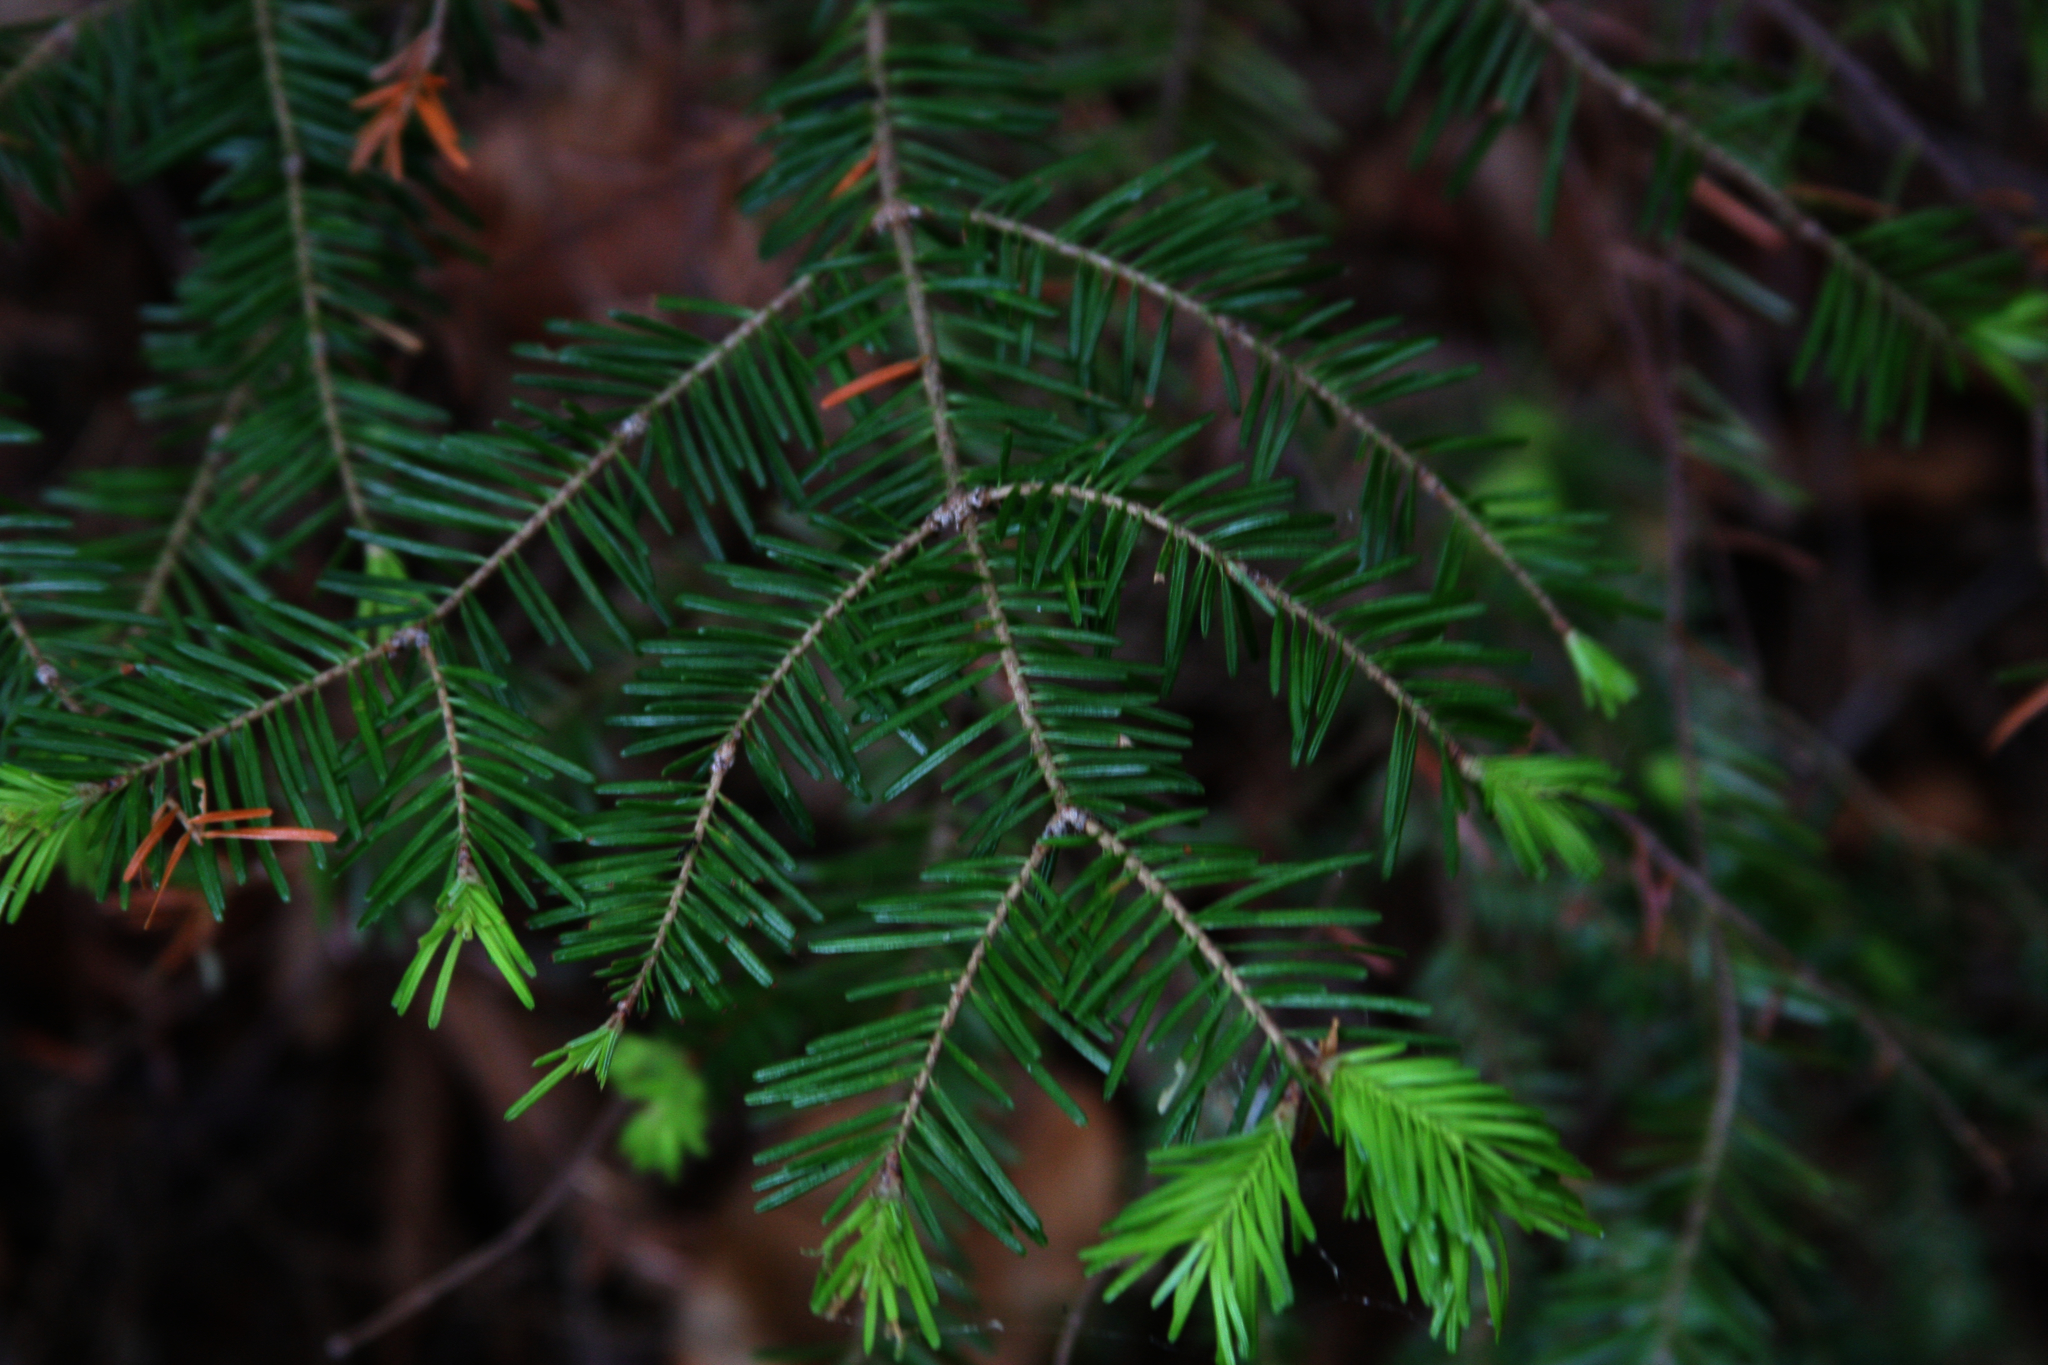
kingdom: Plantae
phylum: Tracheophyta
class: Pinopsida
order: Pinales
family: Pinaceae
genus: Abies
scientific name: Abies balsamea
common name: Balsam fir
